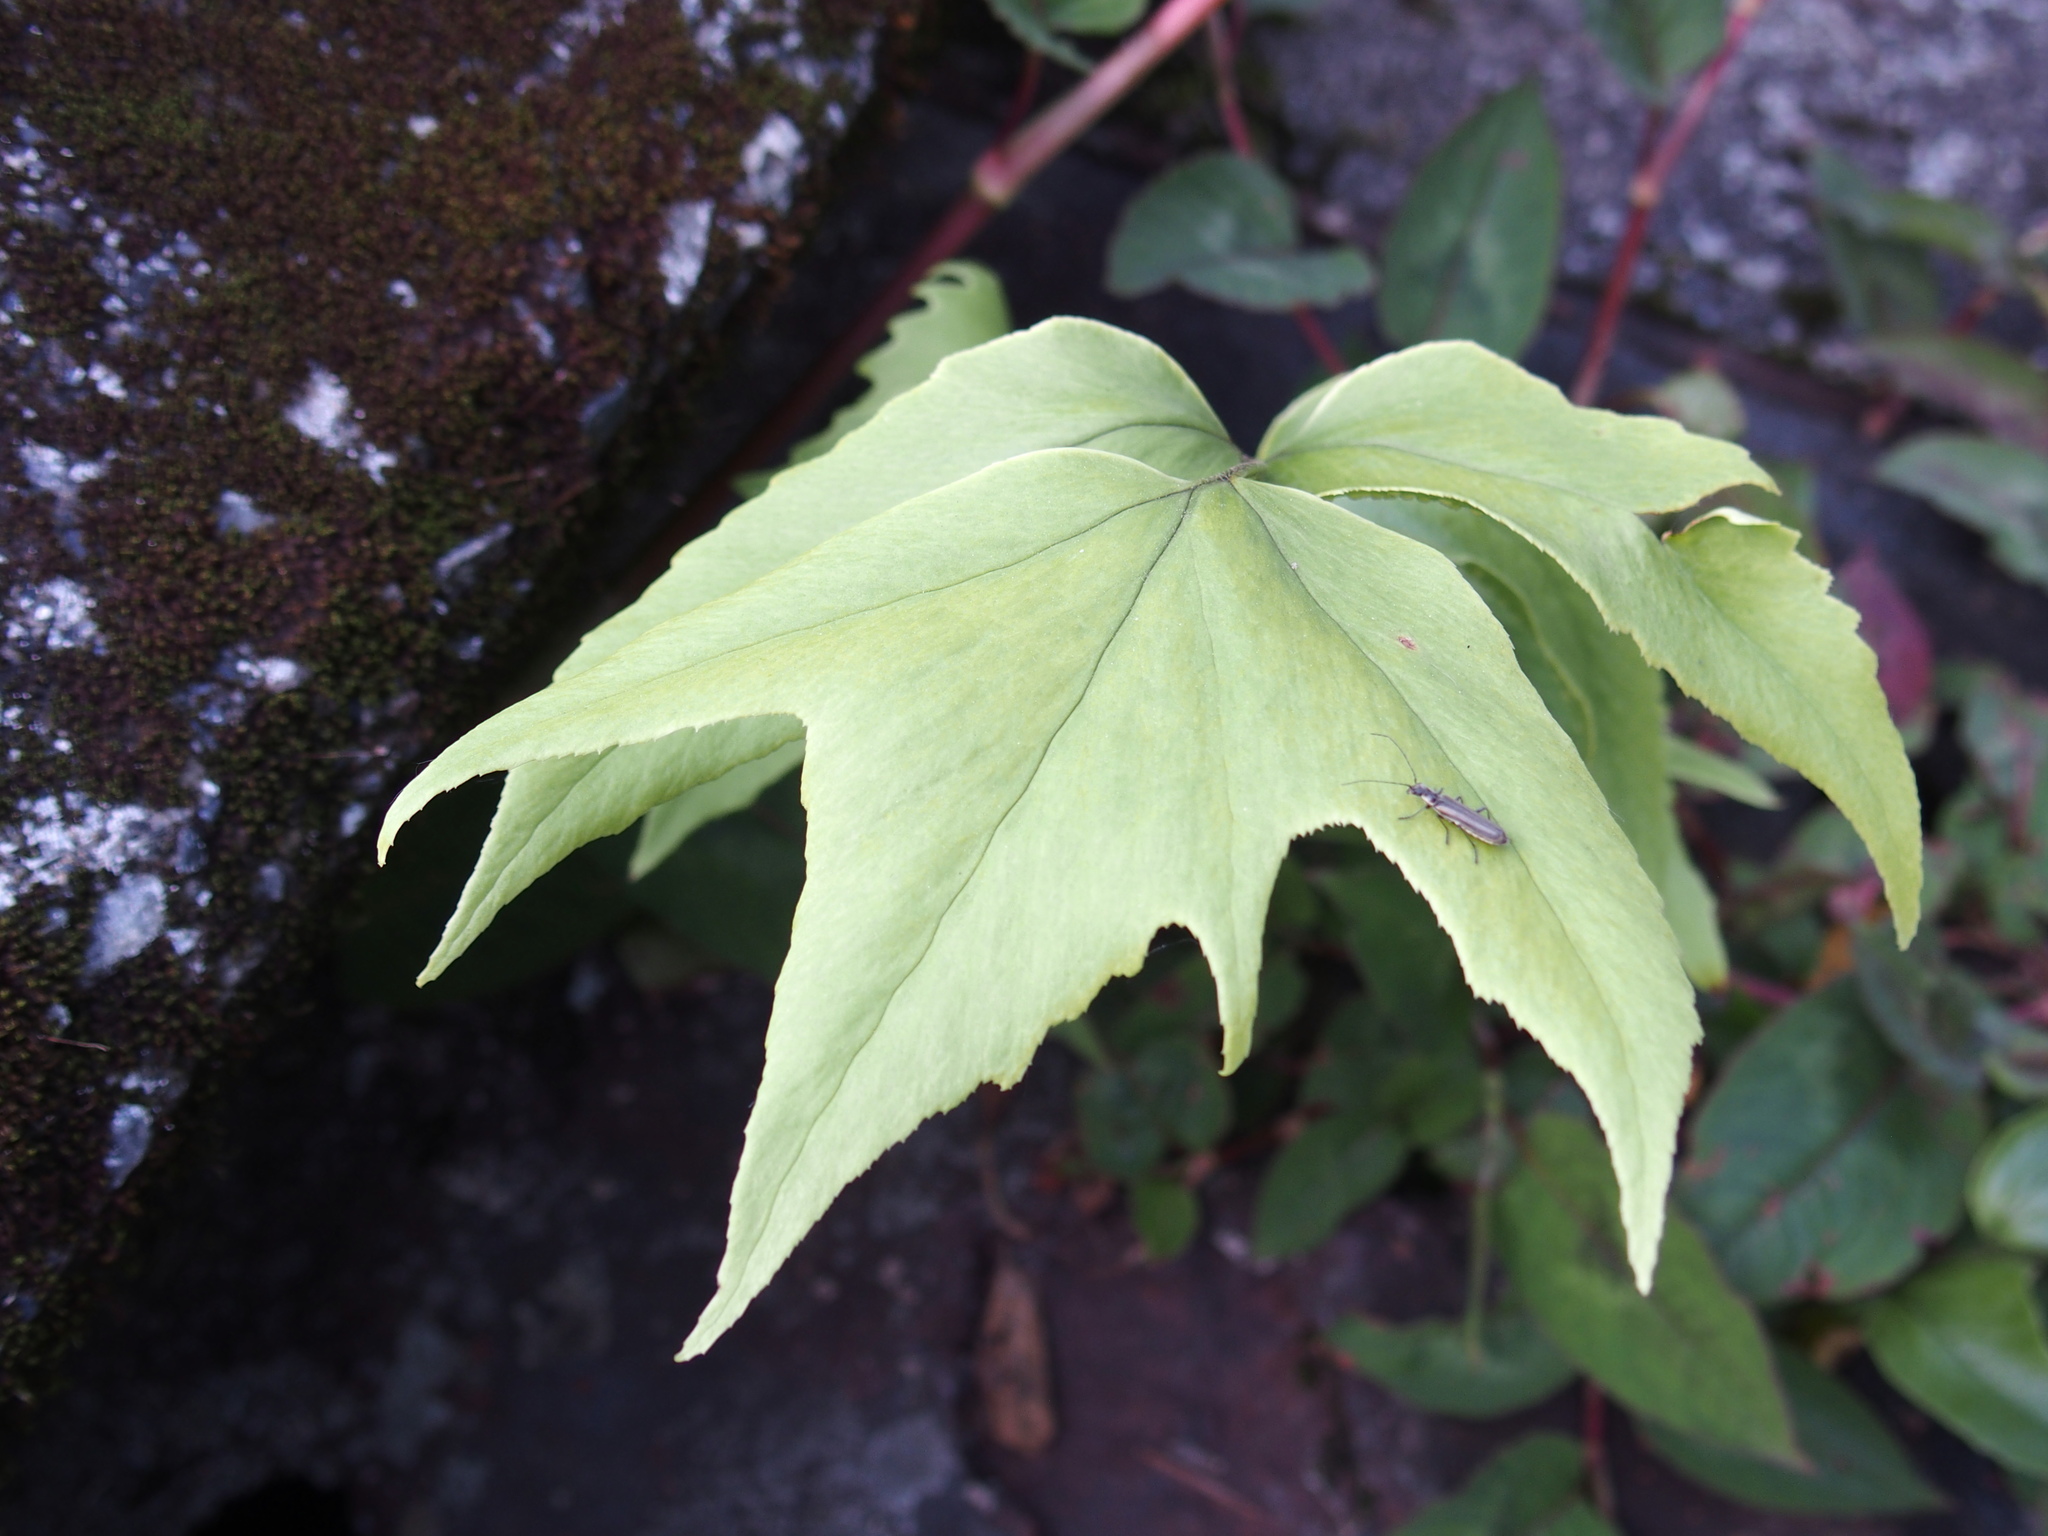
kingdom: Plantae
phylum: Tracheophyta
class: Polypodiopsida
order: Polypodiales
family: Dryopteridaceae
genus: Cyrtomium
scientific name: Cyrtomium caryotideum
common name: Asiatic holly fern
